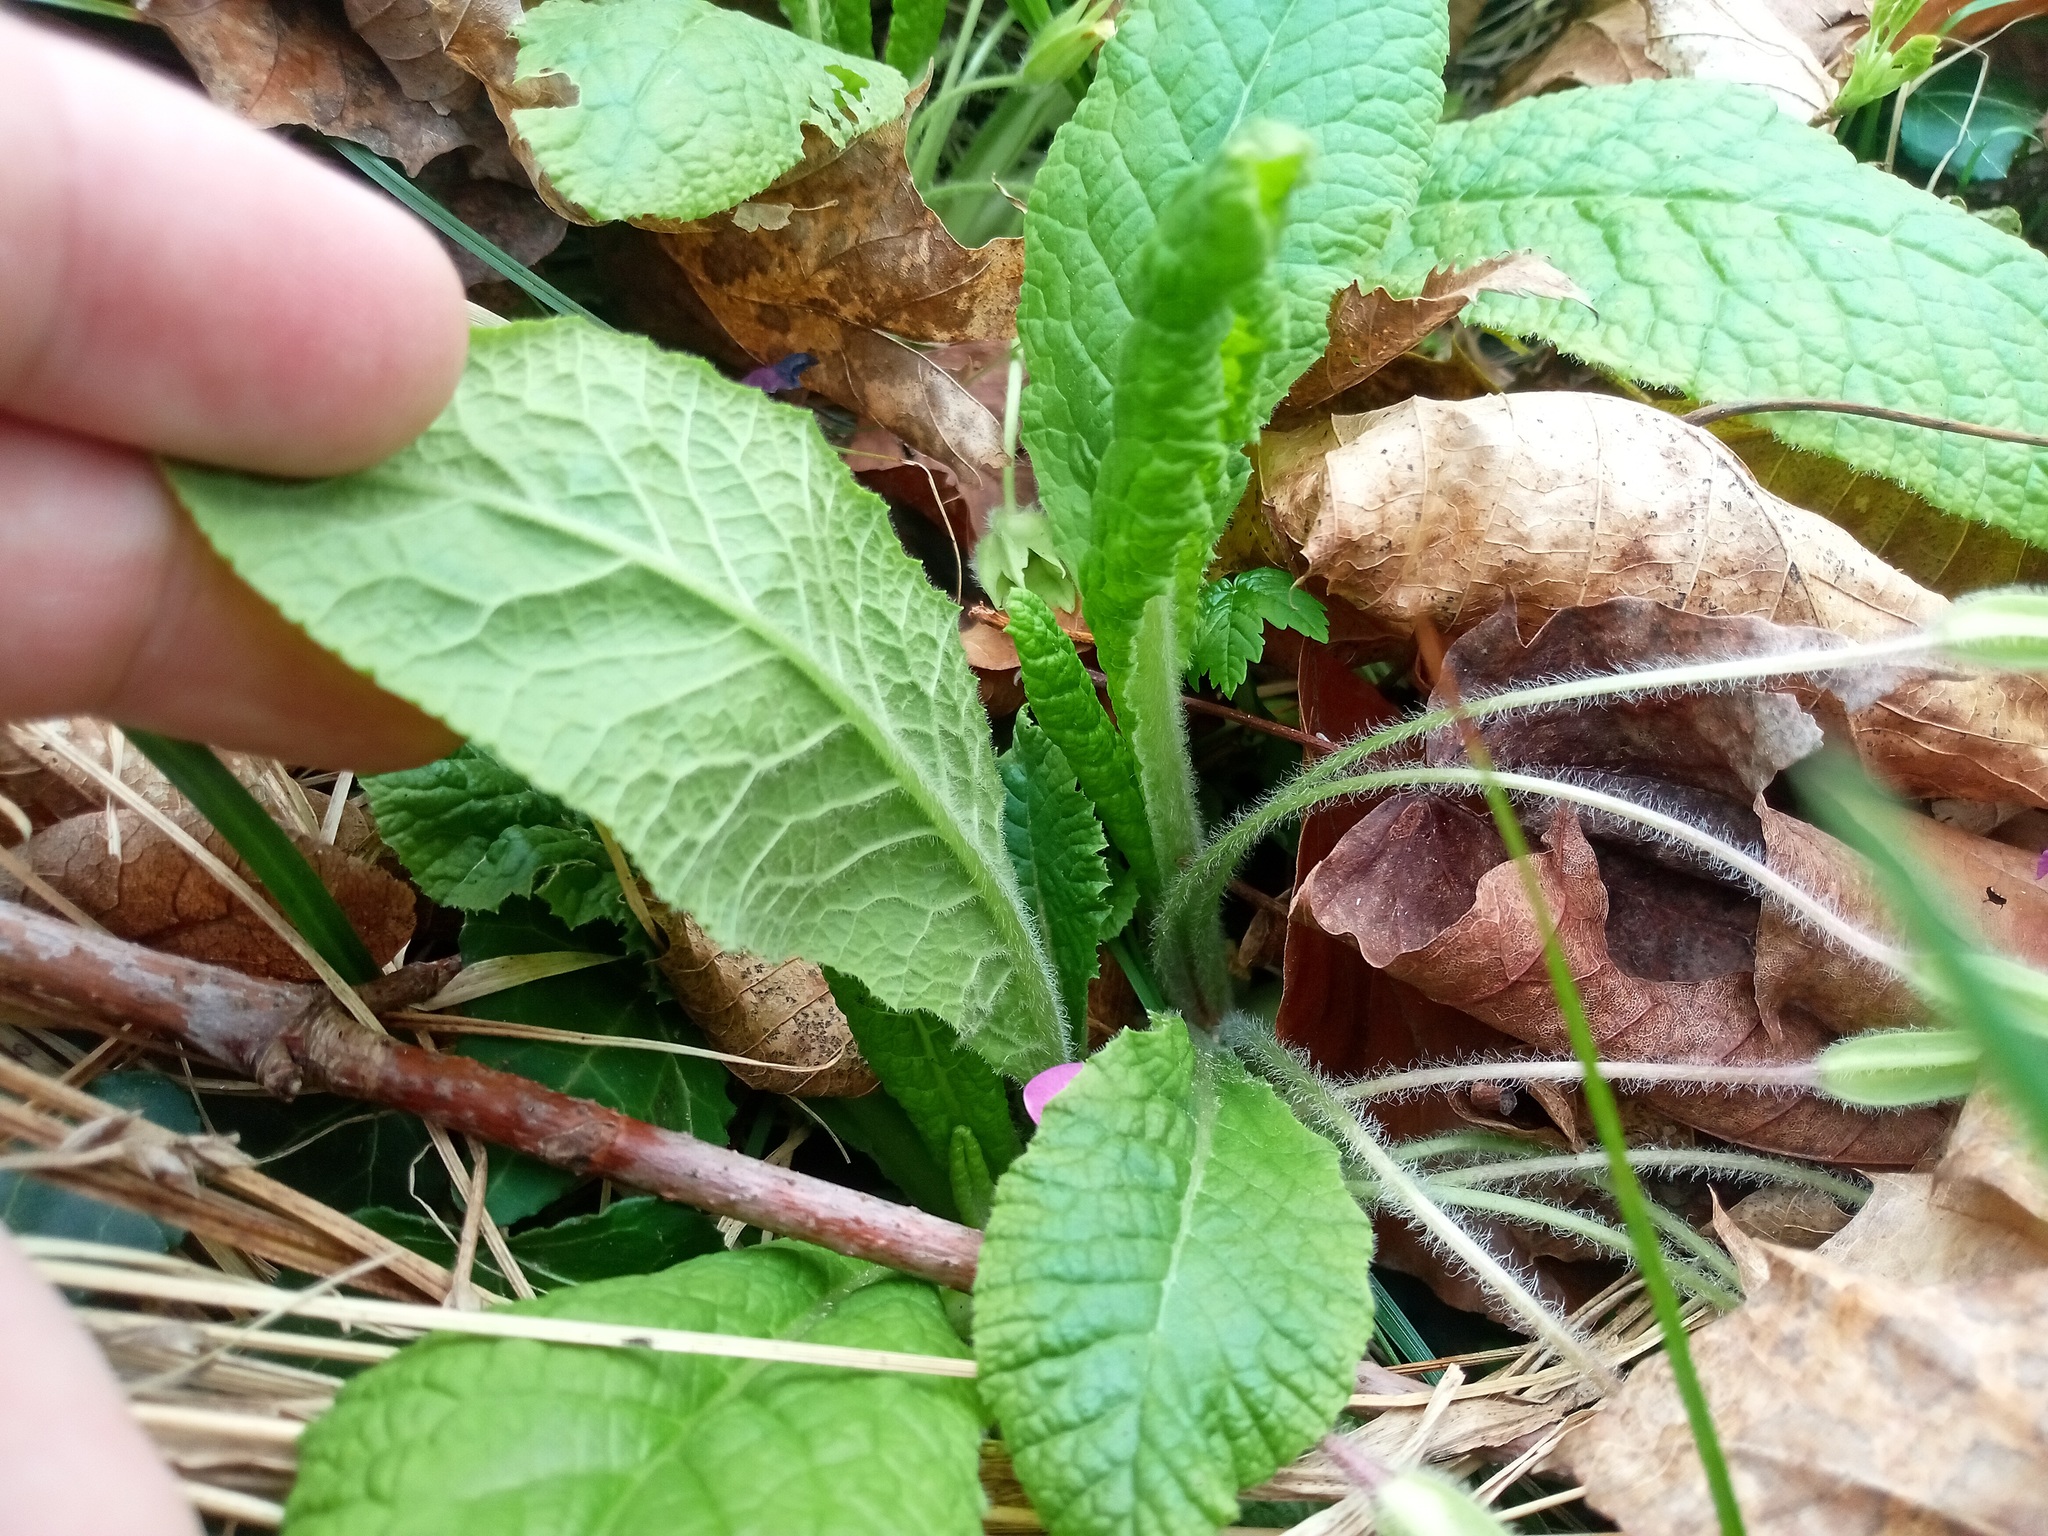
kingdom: Plantae
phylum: Tracheophyta
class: Magnoliopsida
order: Ericales
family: Primulaceae
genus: Primula
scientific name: Primula vulgaris
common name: Primrose
